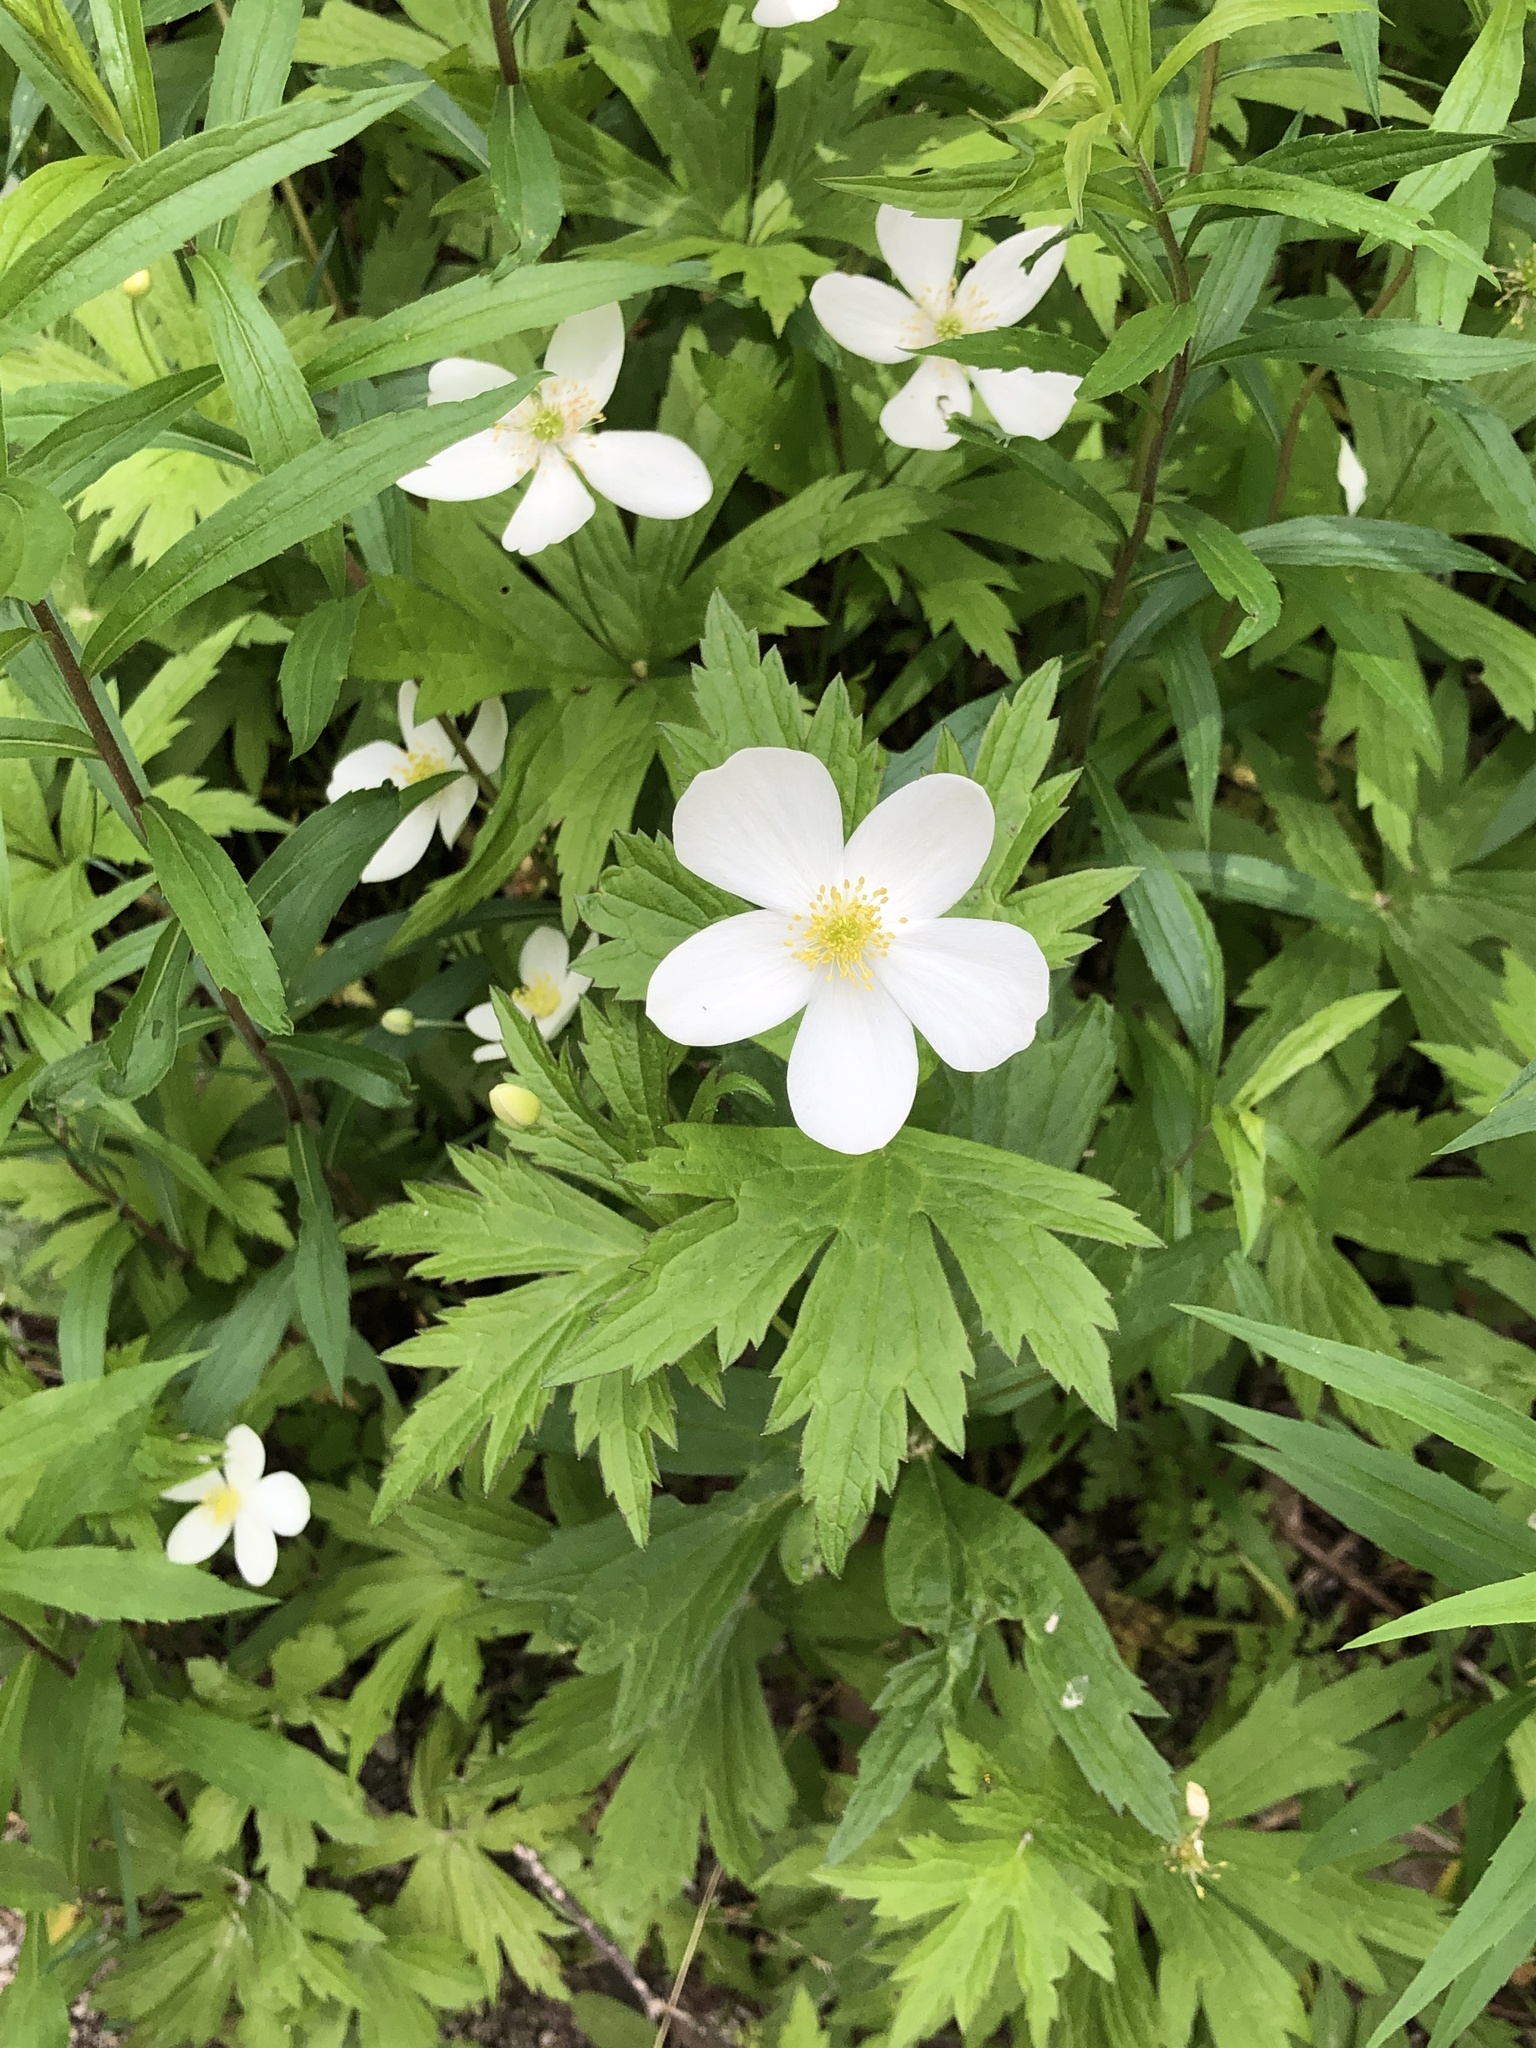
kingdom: Plantae
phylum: Tracheophyta
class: Magnoliopsida
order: Ranunculales
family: Ranunculaceae
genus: Anemonastrum
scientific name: Anemonastrum canadense
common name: Canada anemone
